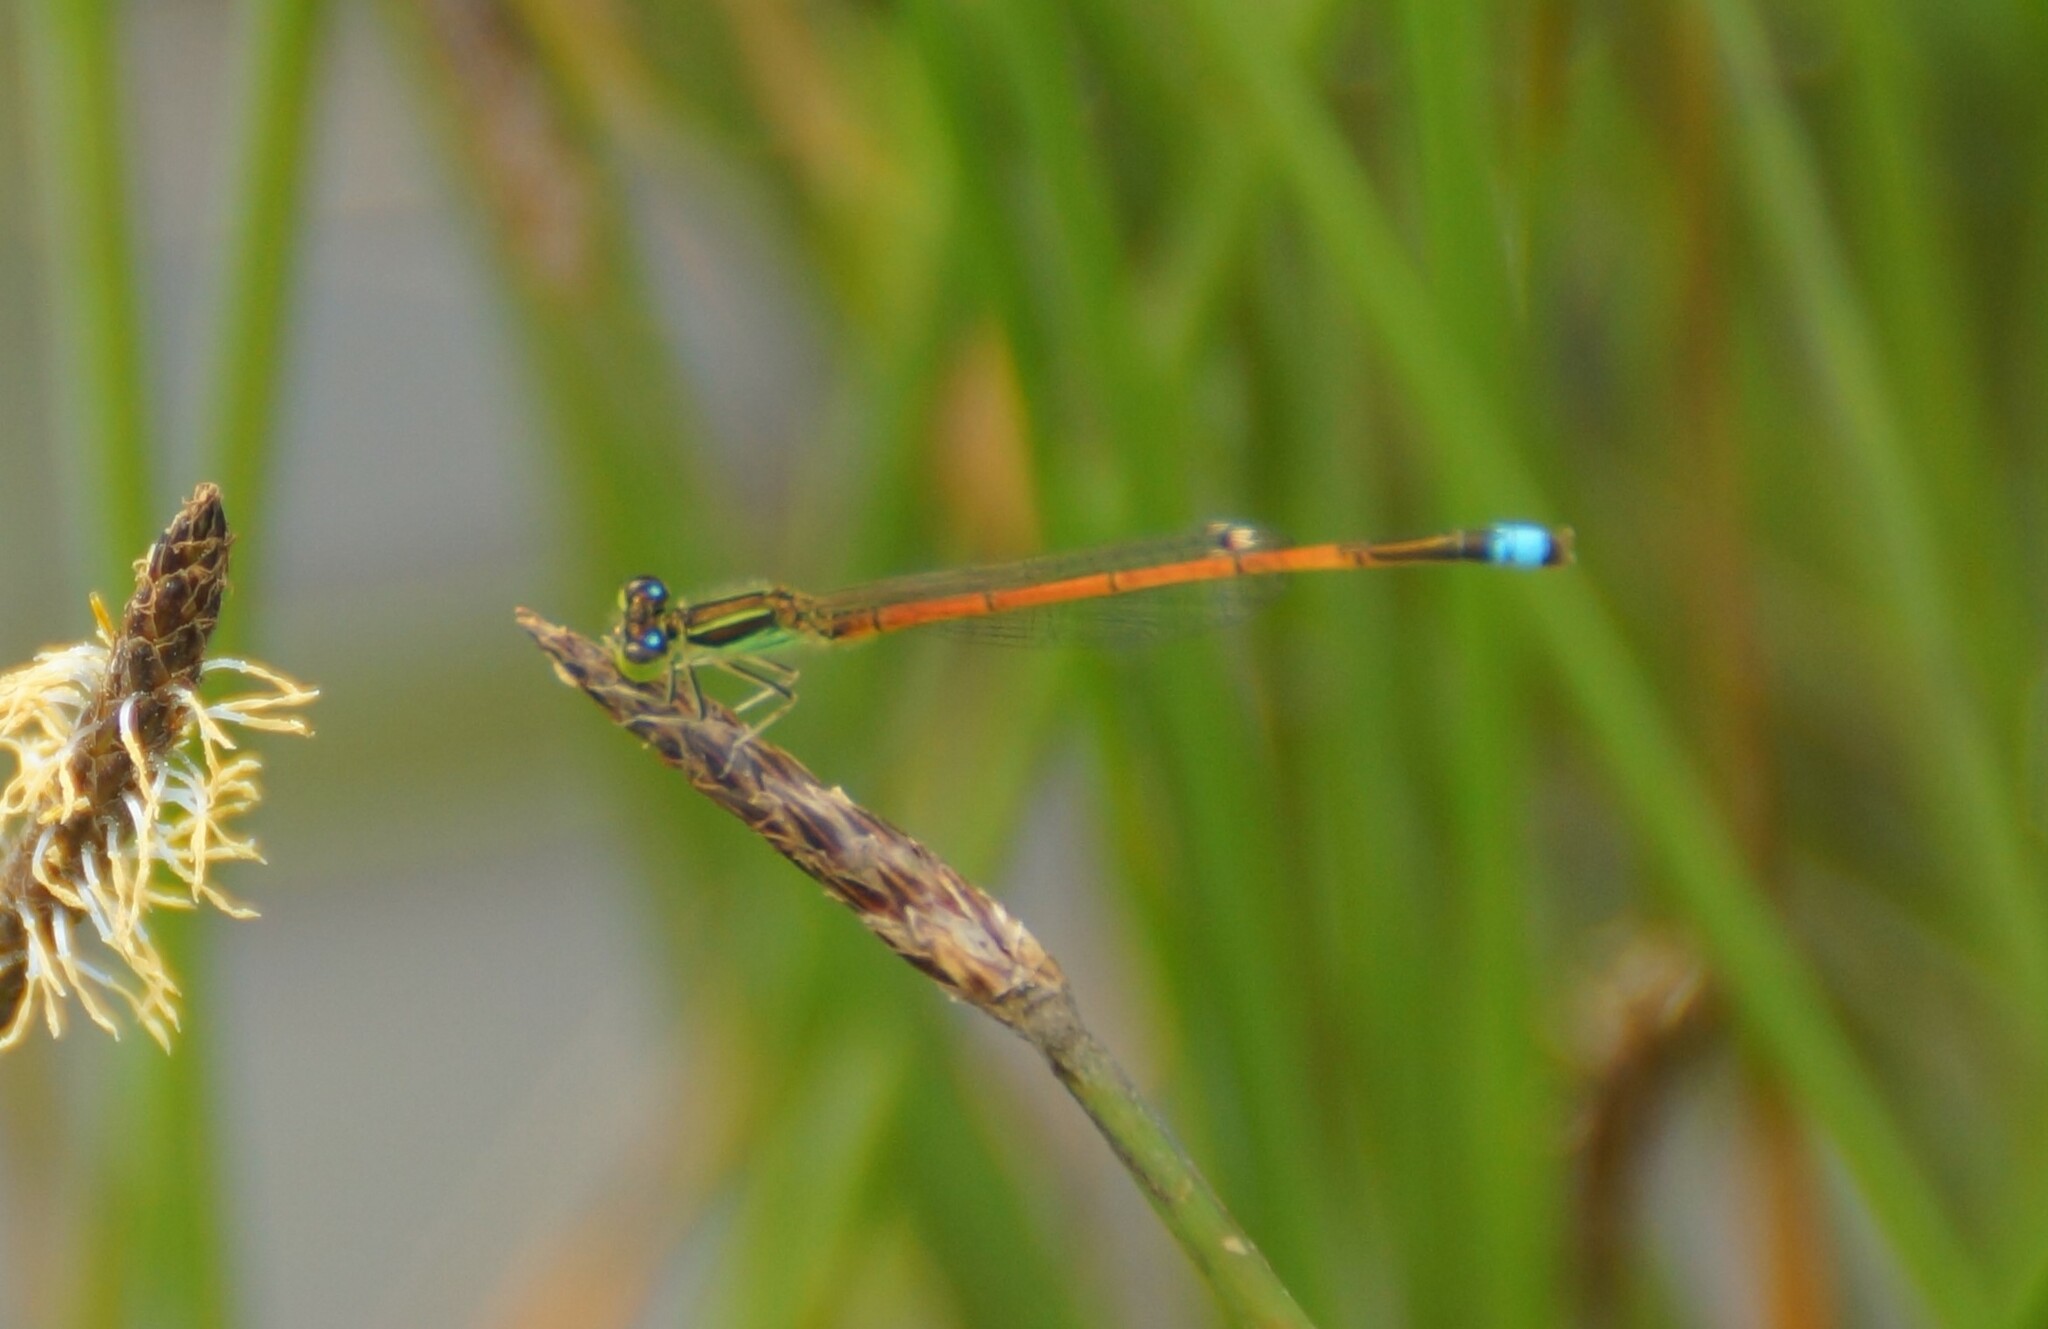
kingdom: Animalia
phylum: Arthropoda
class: Insecta
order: Odonata
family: Coenagrionidae
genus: Ischnura
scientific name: Ischnura aurora
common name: Gossamer damselfly
